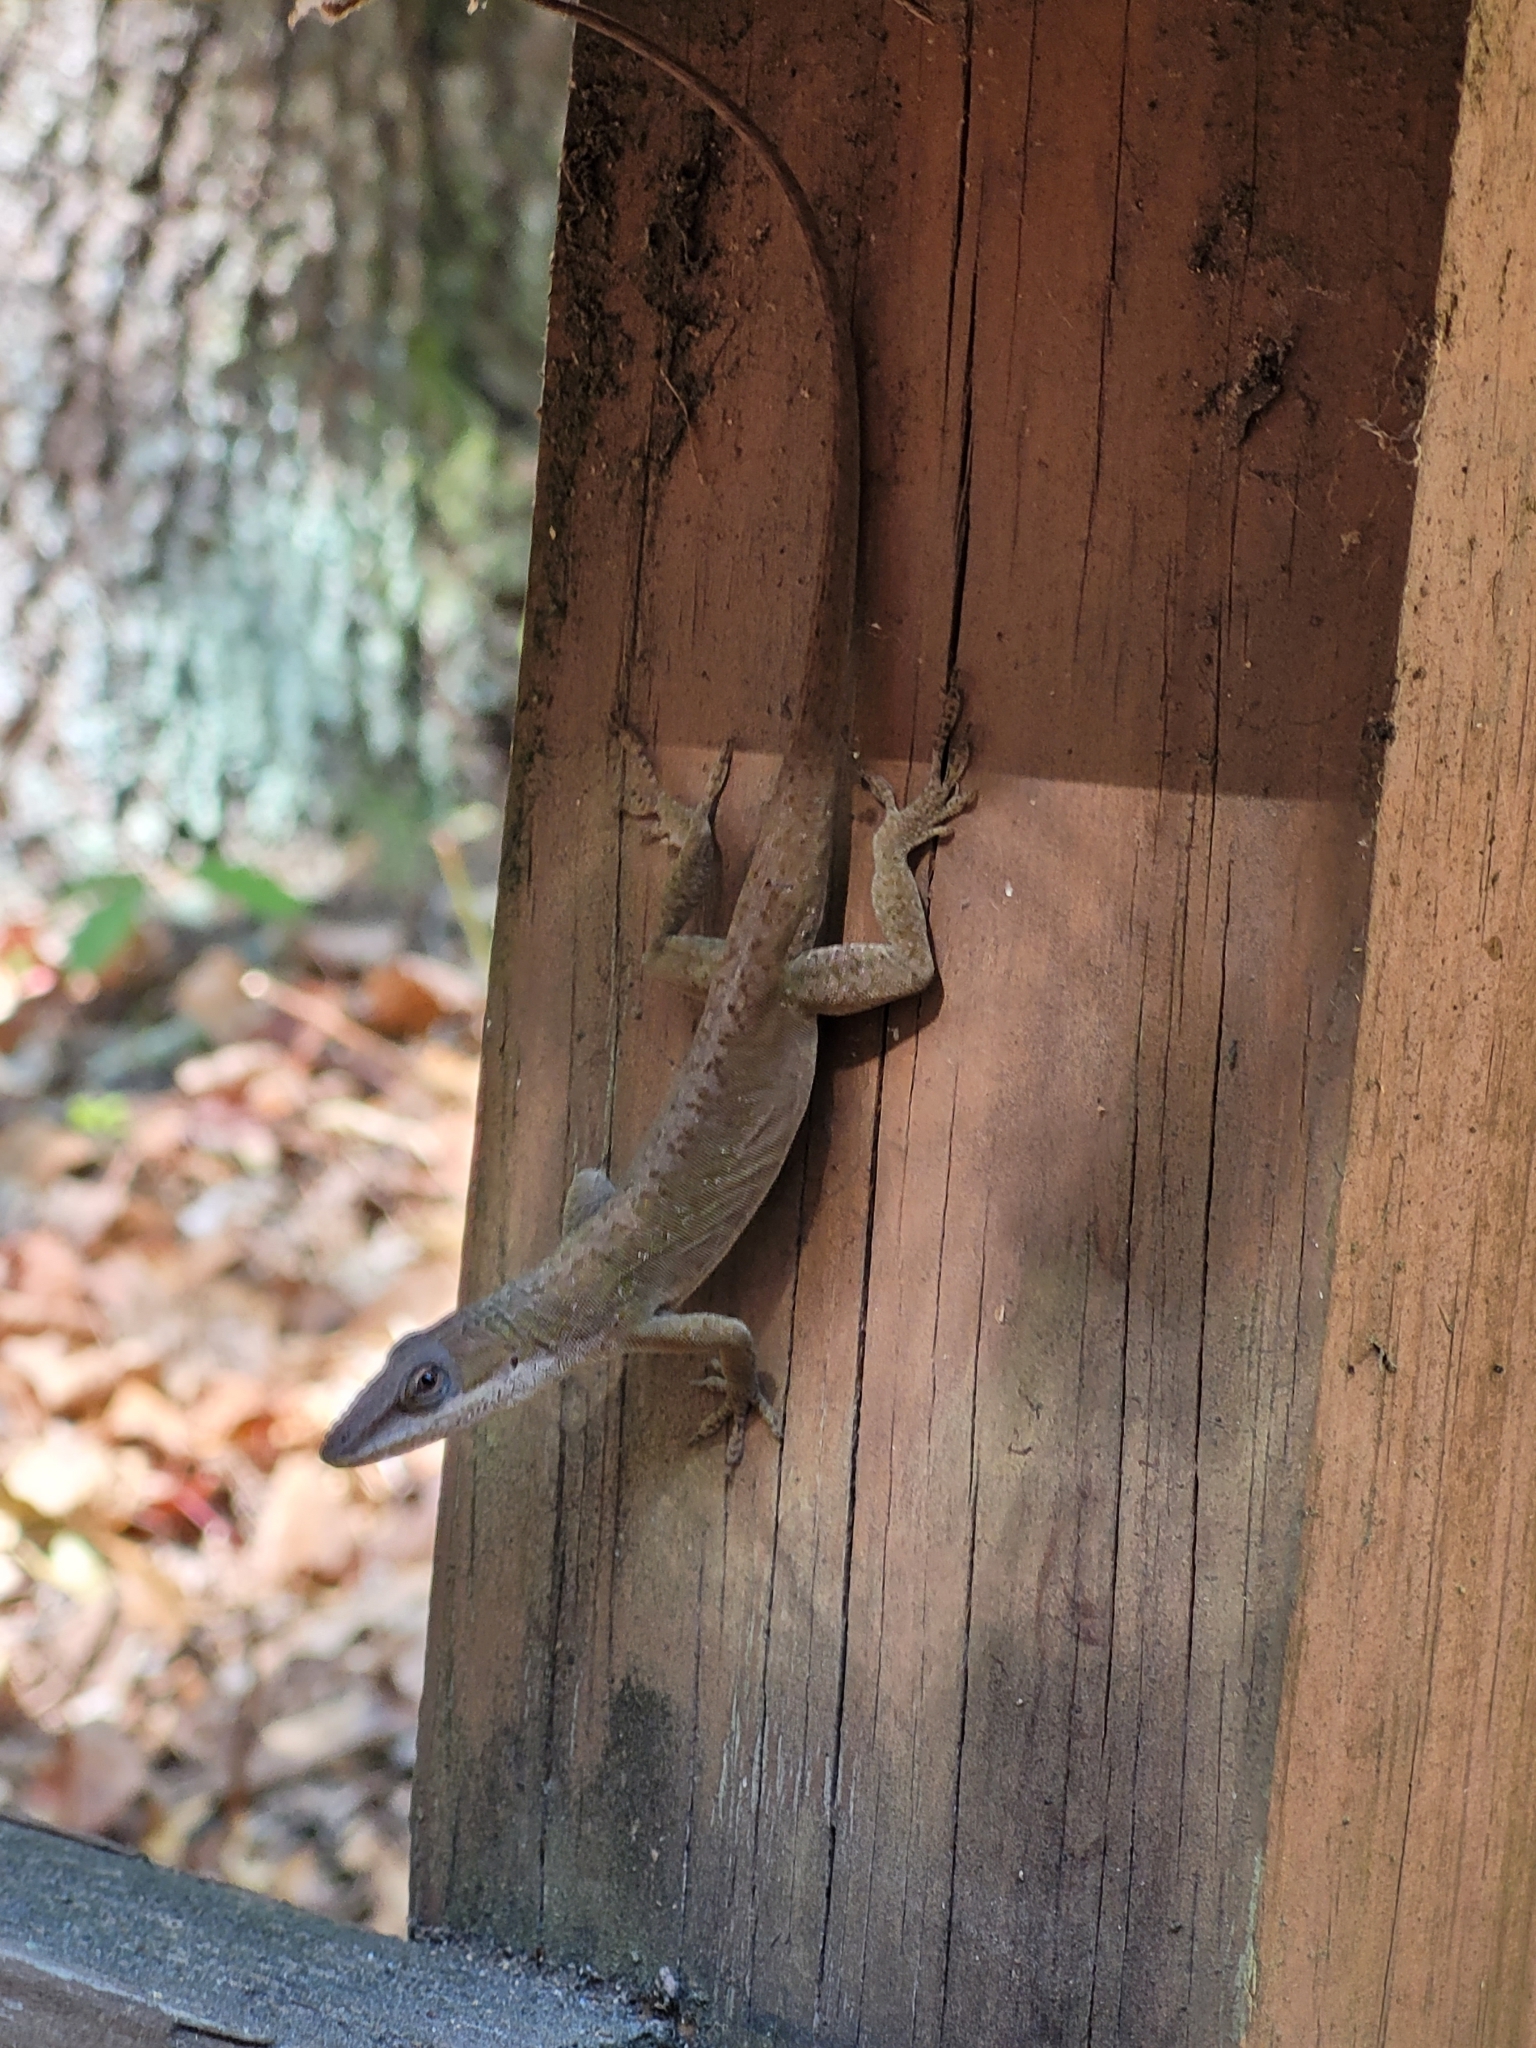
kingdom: Animalia
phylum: Chordata
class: Squamata
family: Dactyloidae
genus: Anolis
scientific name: Anolis carolinensis
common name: Green anole
